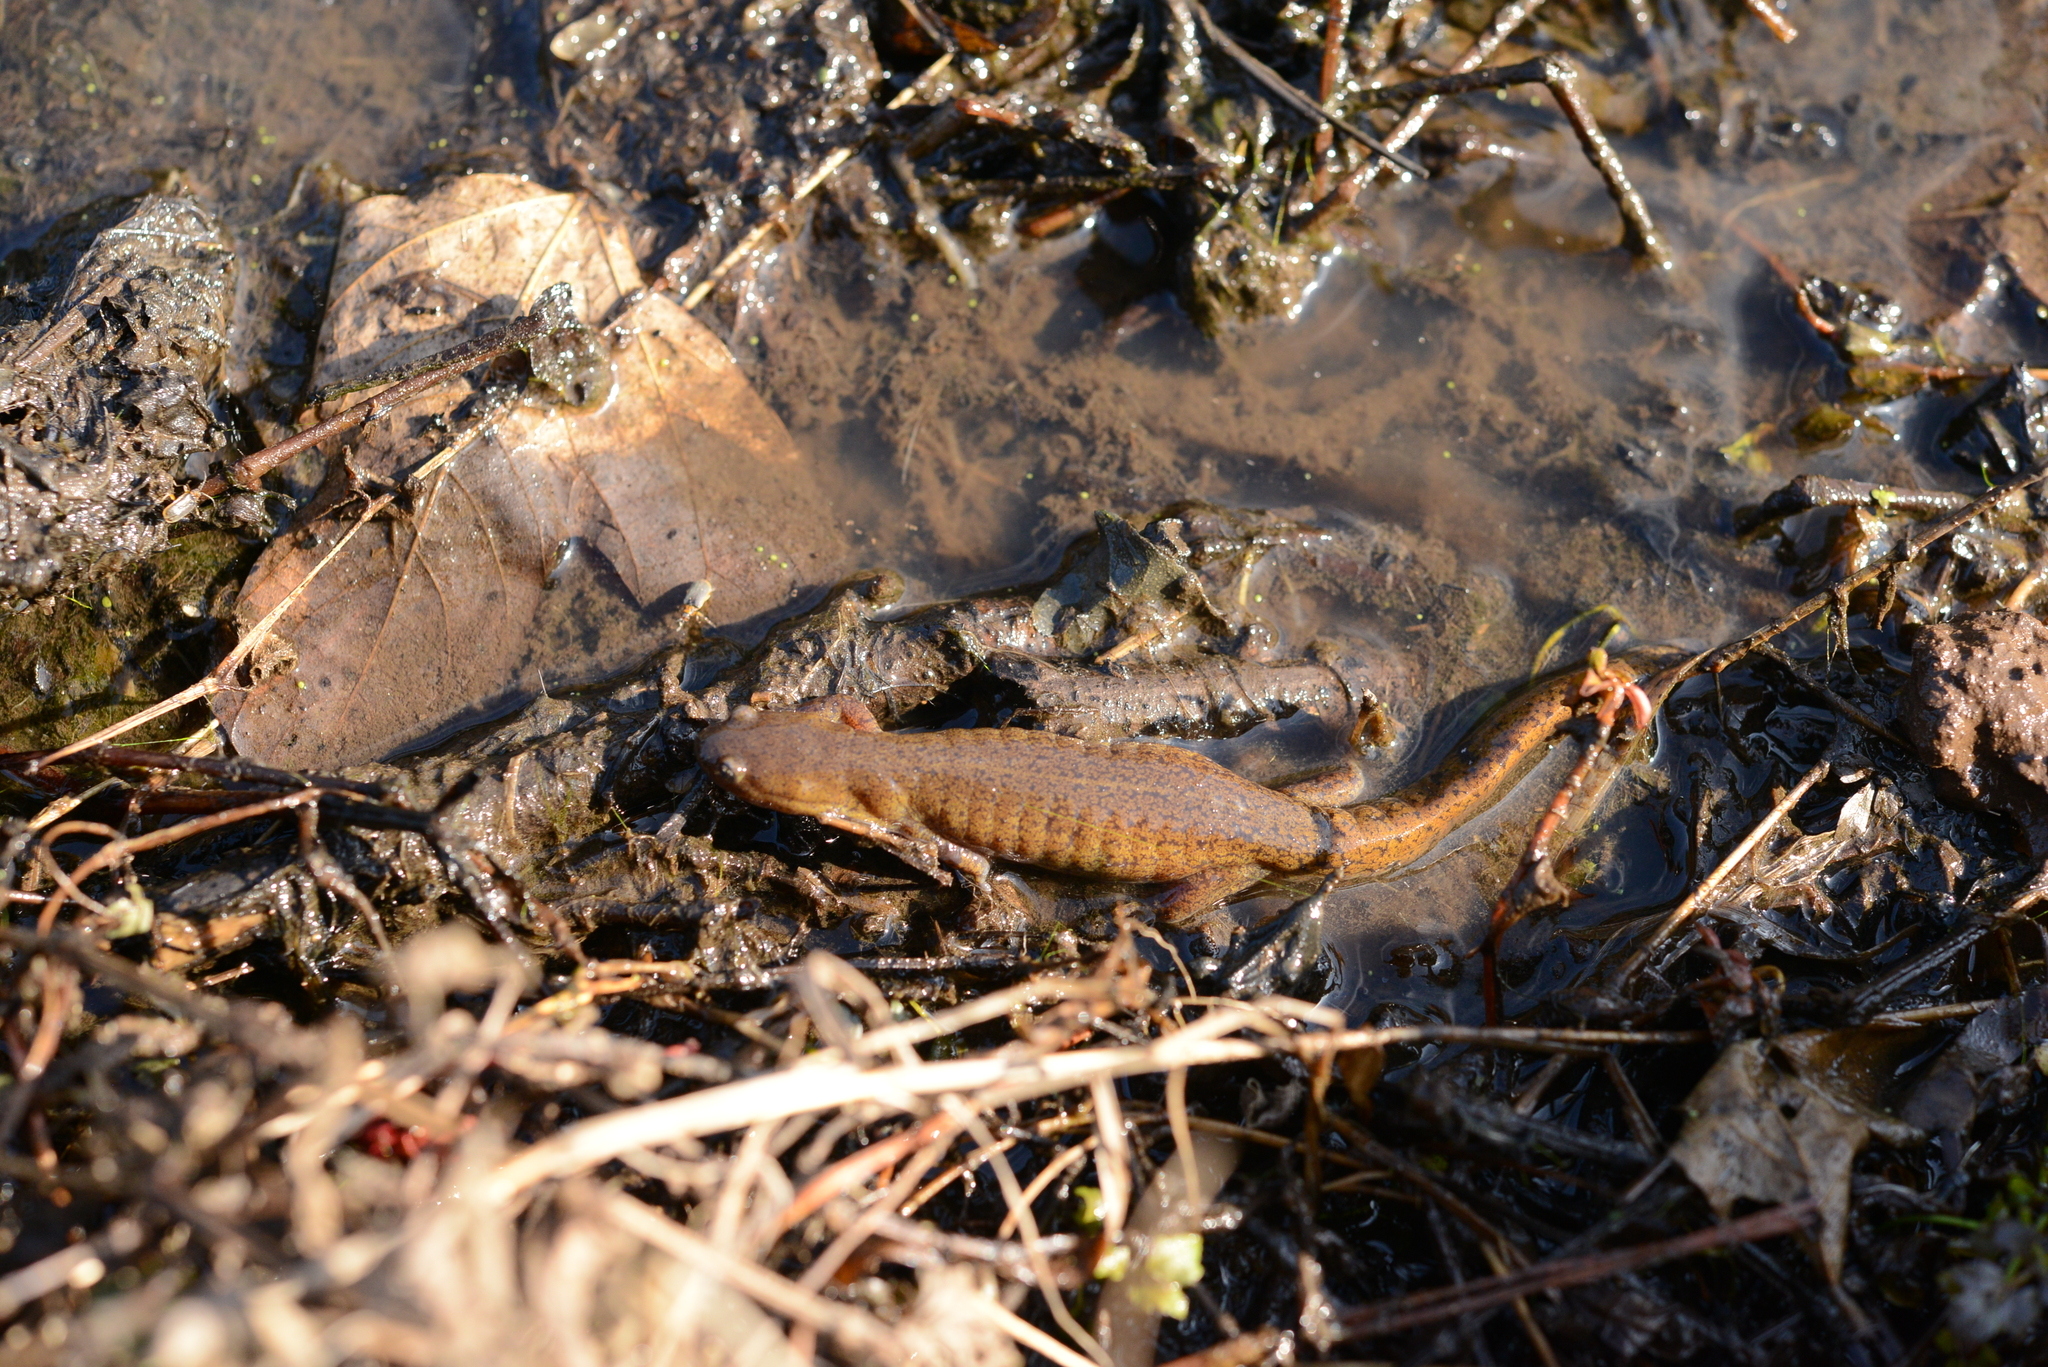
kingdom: Animalia
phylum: Chordata
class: Amphibia
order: Caudata
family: Hynobiidae
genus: Hynobius
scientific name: Hynobius quelpaertensis
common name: Cheju salamander
